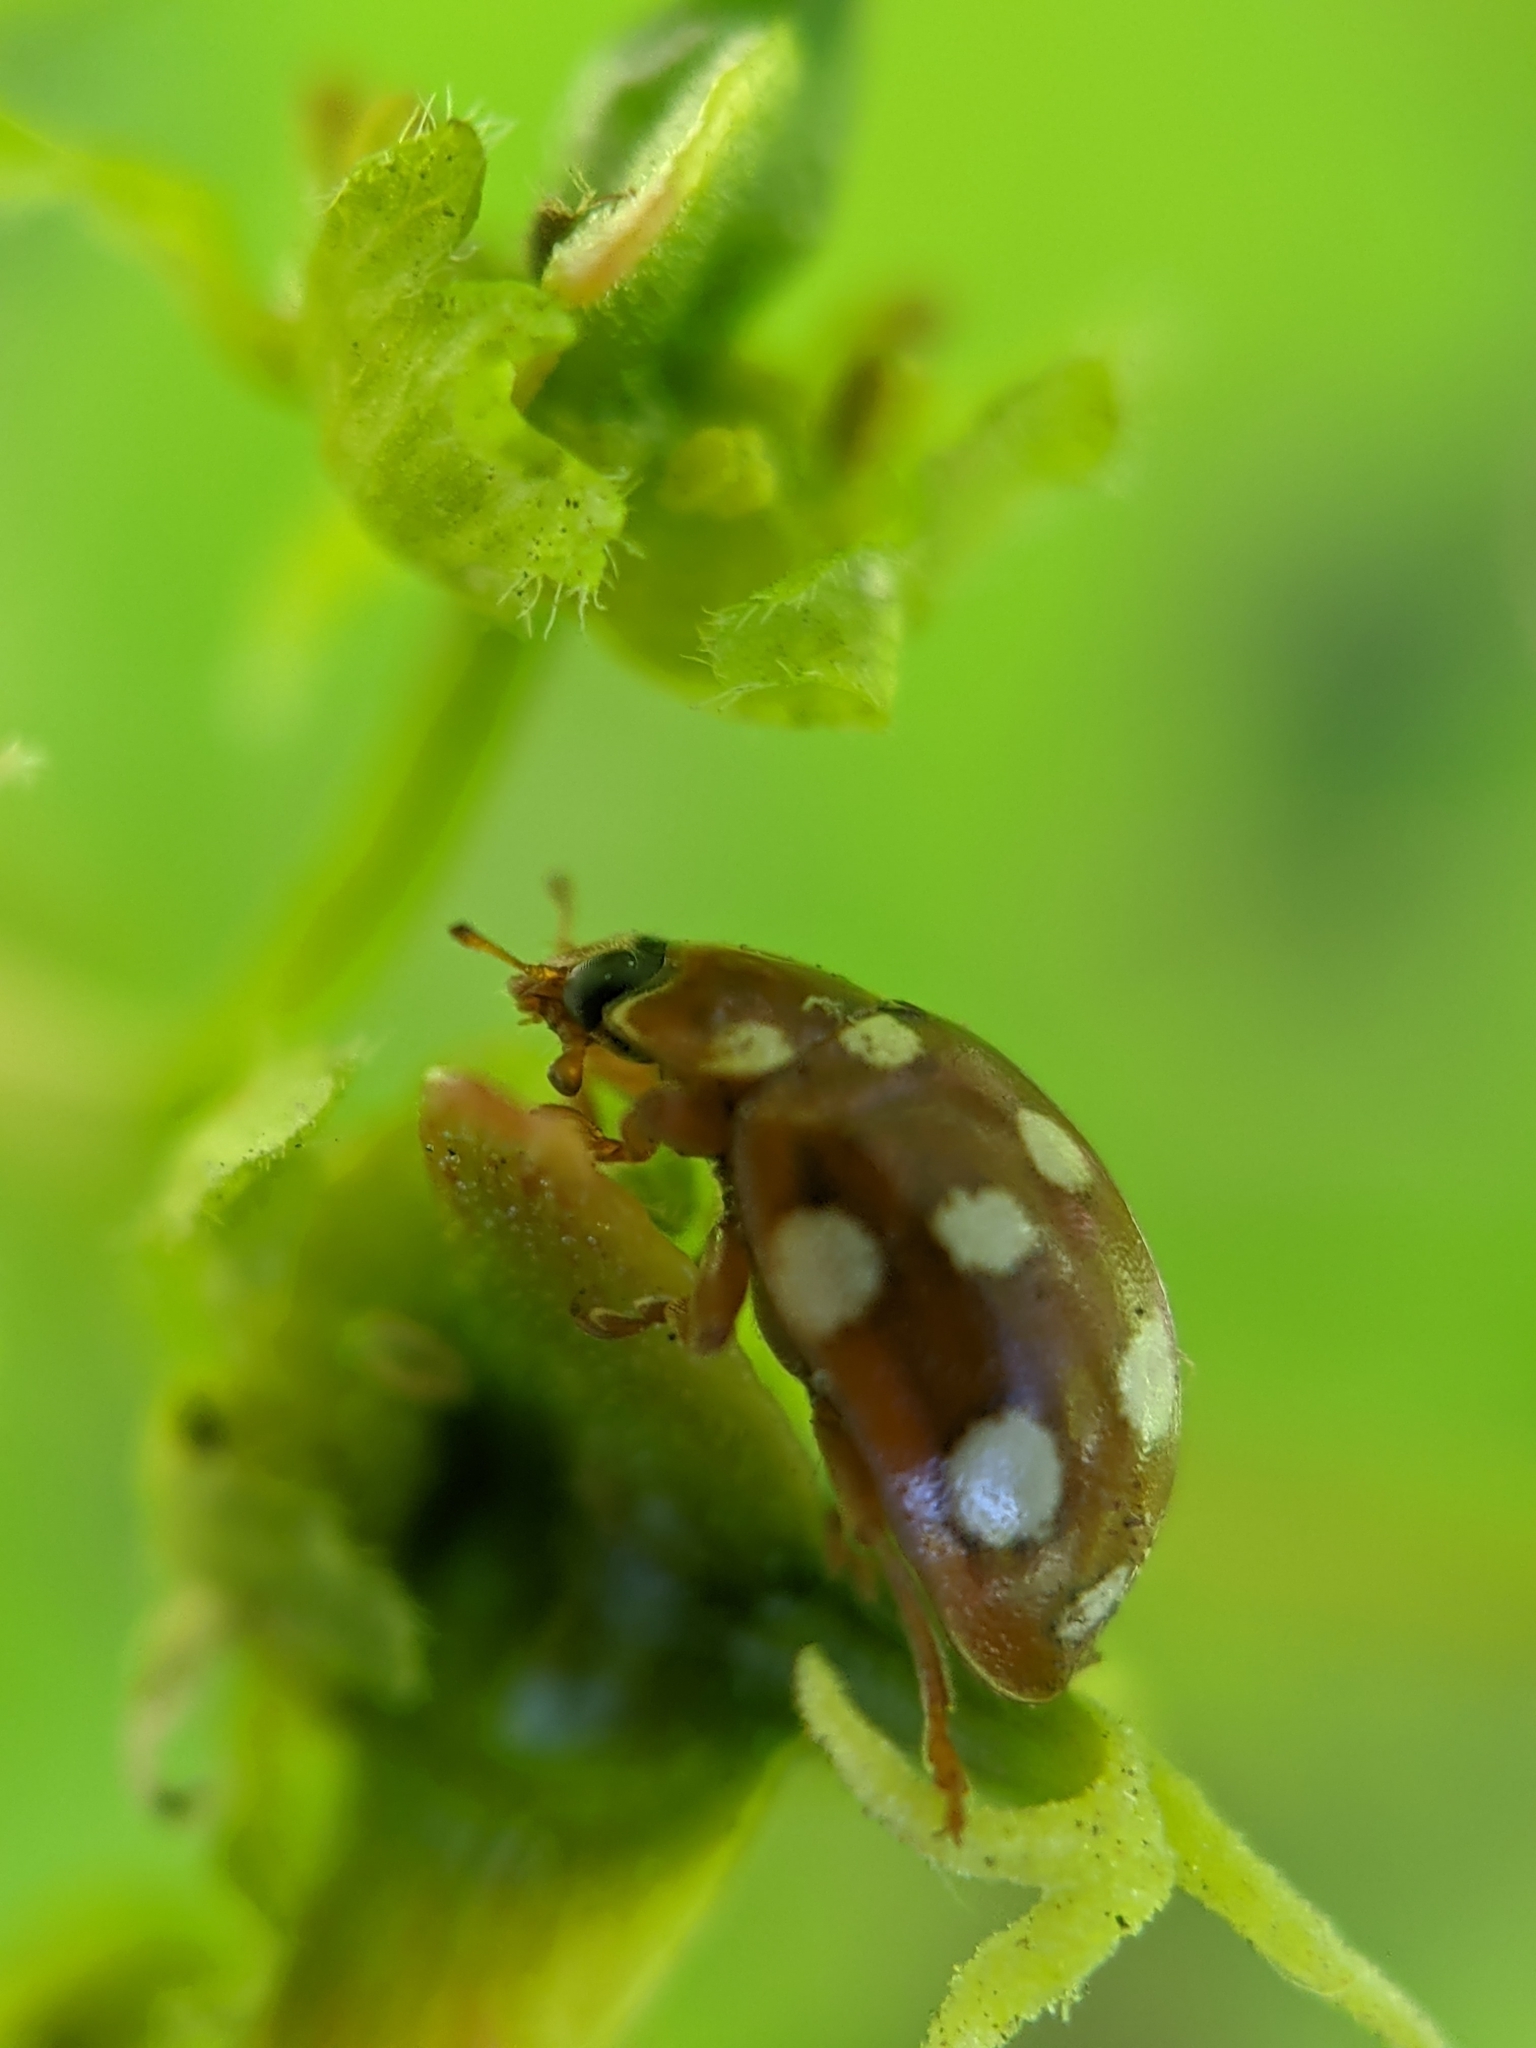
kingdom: Animalia
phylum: Arthropoda
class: Insecta
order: Coleoptera
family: Coccinellidae
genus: Calvia
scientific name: Calvia quatuordecimguttata
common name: Cream-spot ladybird
